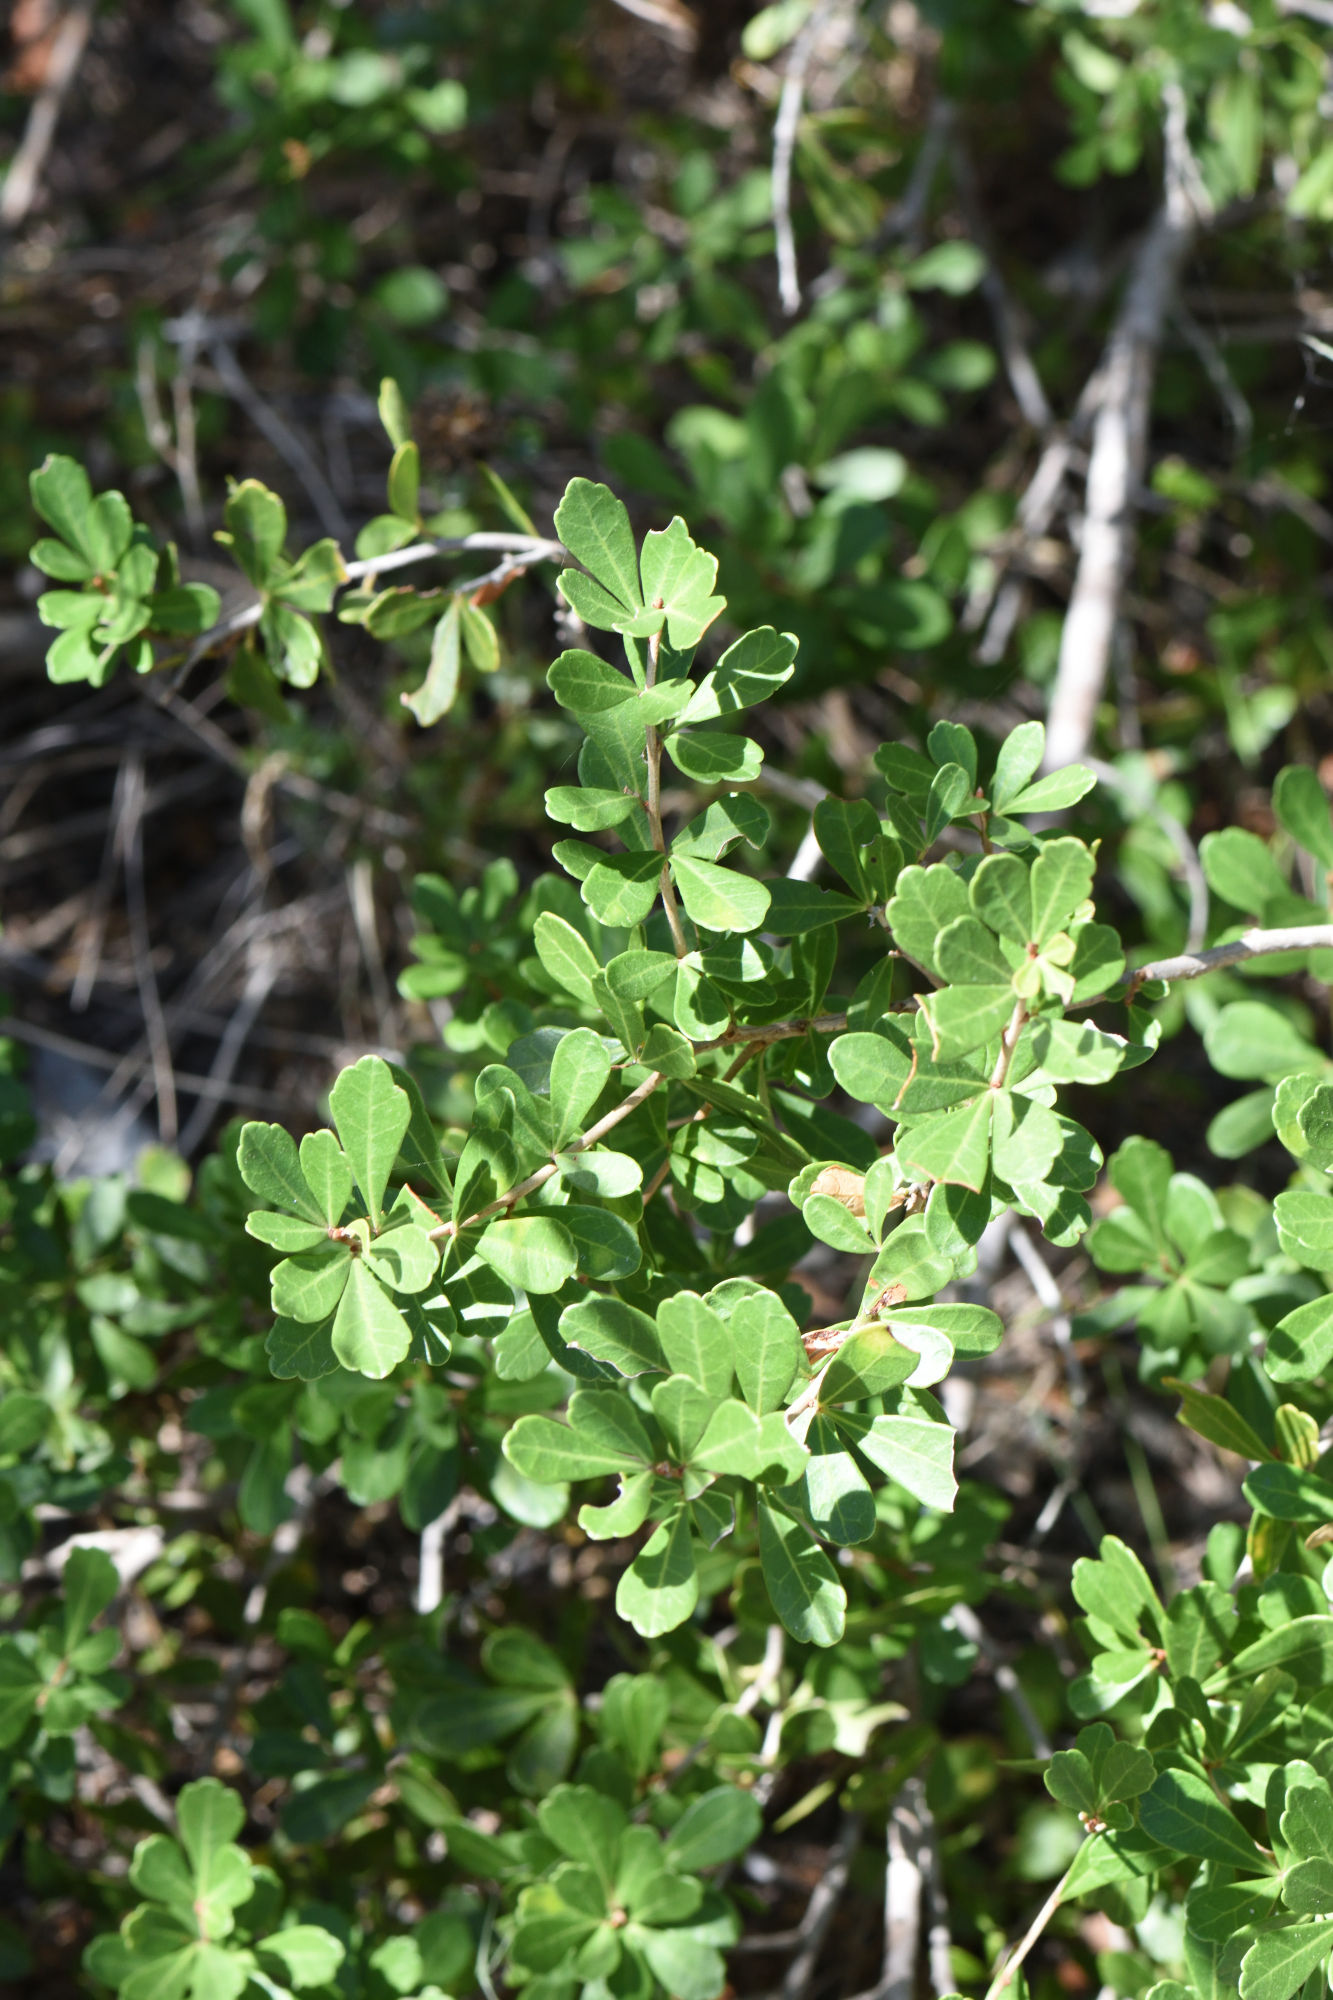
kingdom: Plantae
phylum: Tracheophyta
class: Magnoliopsida
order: Sapindales
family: Anacardiaceae
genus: Searsia
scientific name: Searsia crenata
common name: Crowberry
